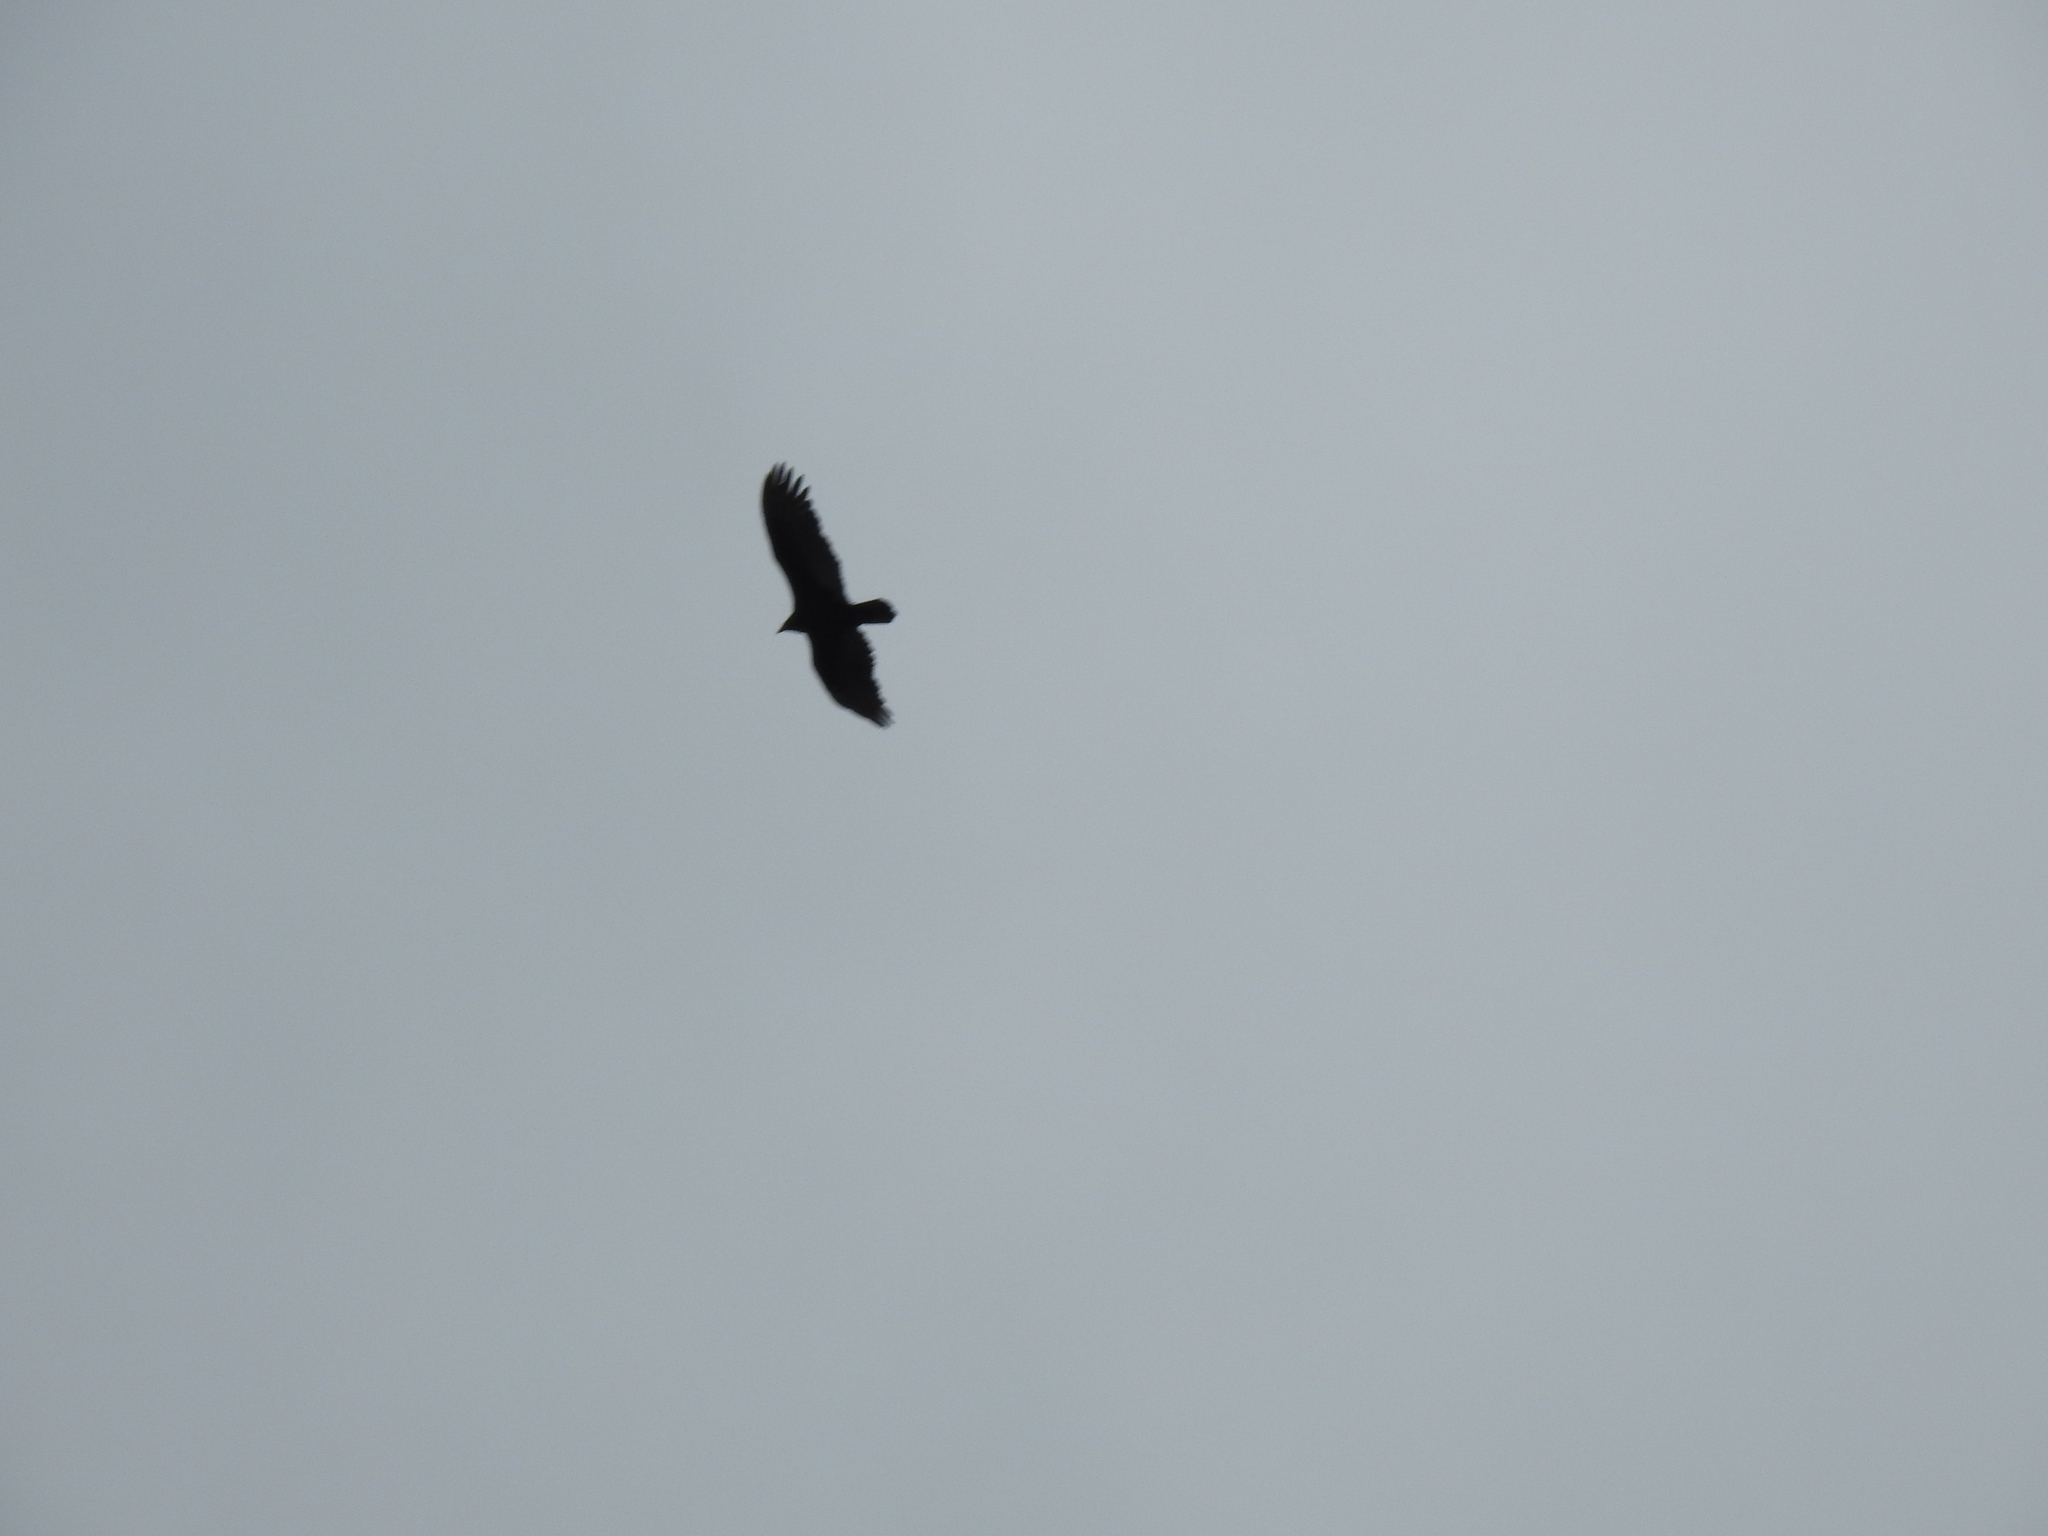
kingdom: Animalia
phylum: Chordata
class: Aves
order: Accipitriformes
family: Cathartidae
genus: Cathartes
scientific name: Cathartes aura
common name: Turkey vulture
